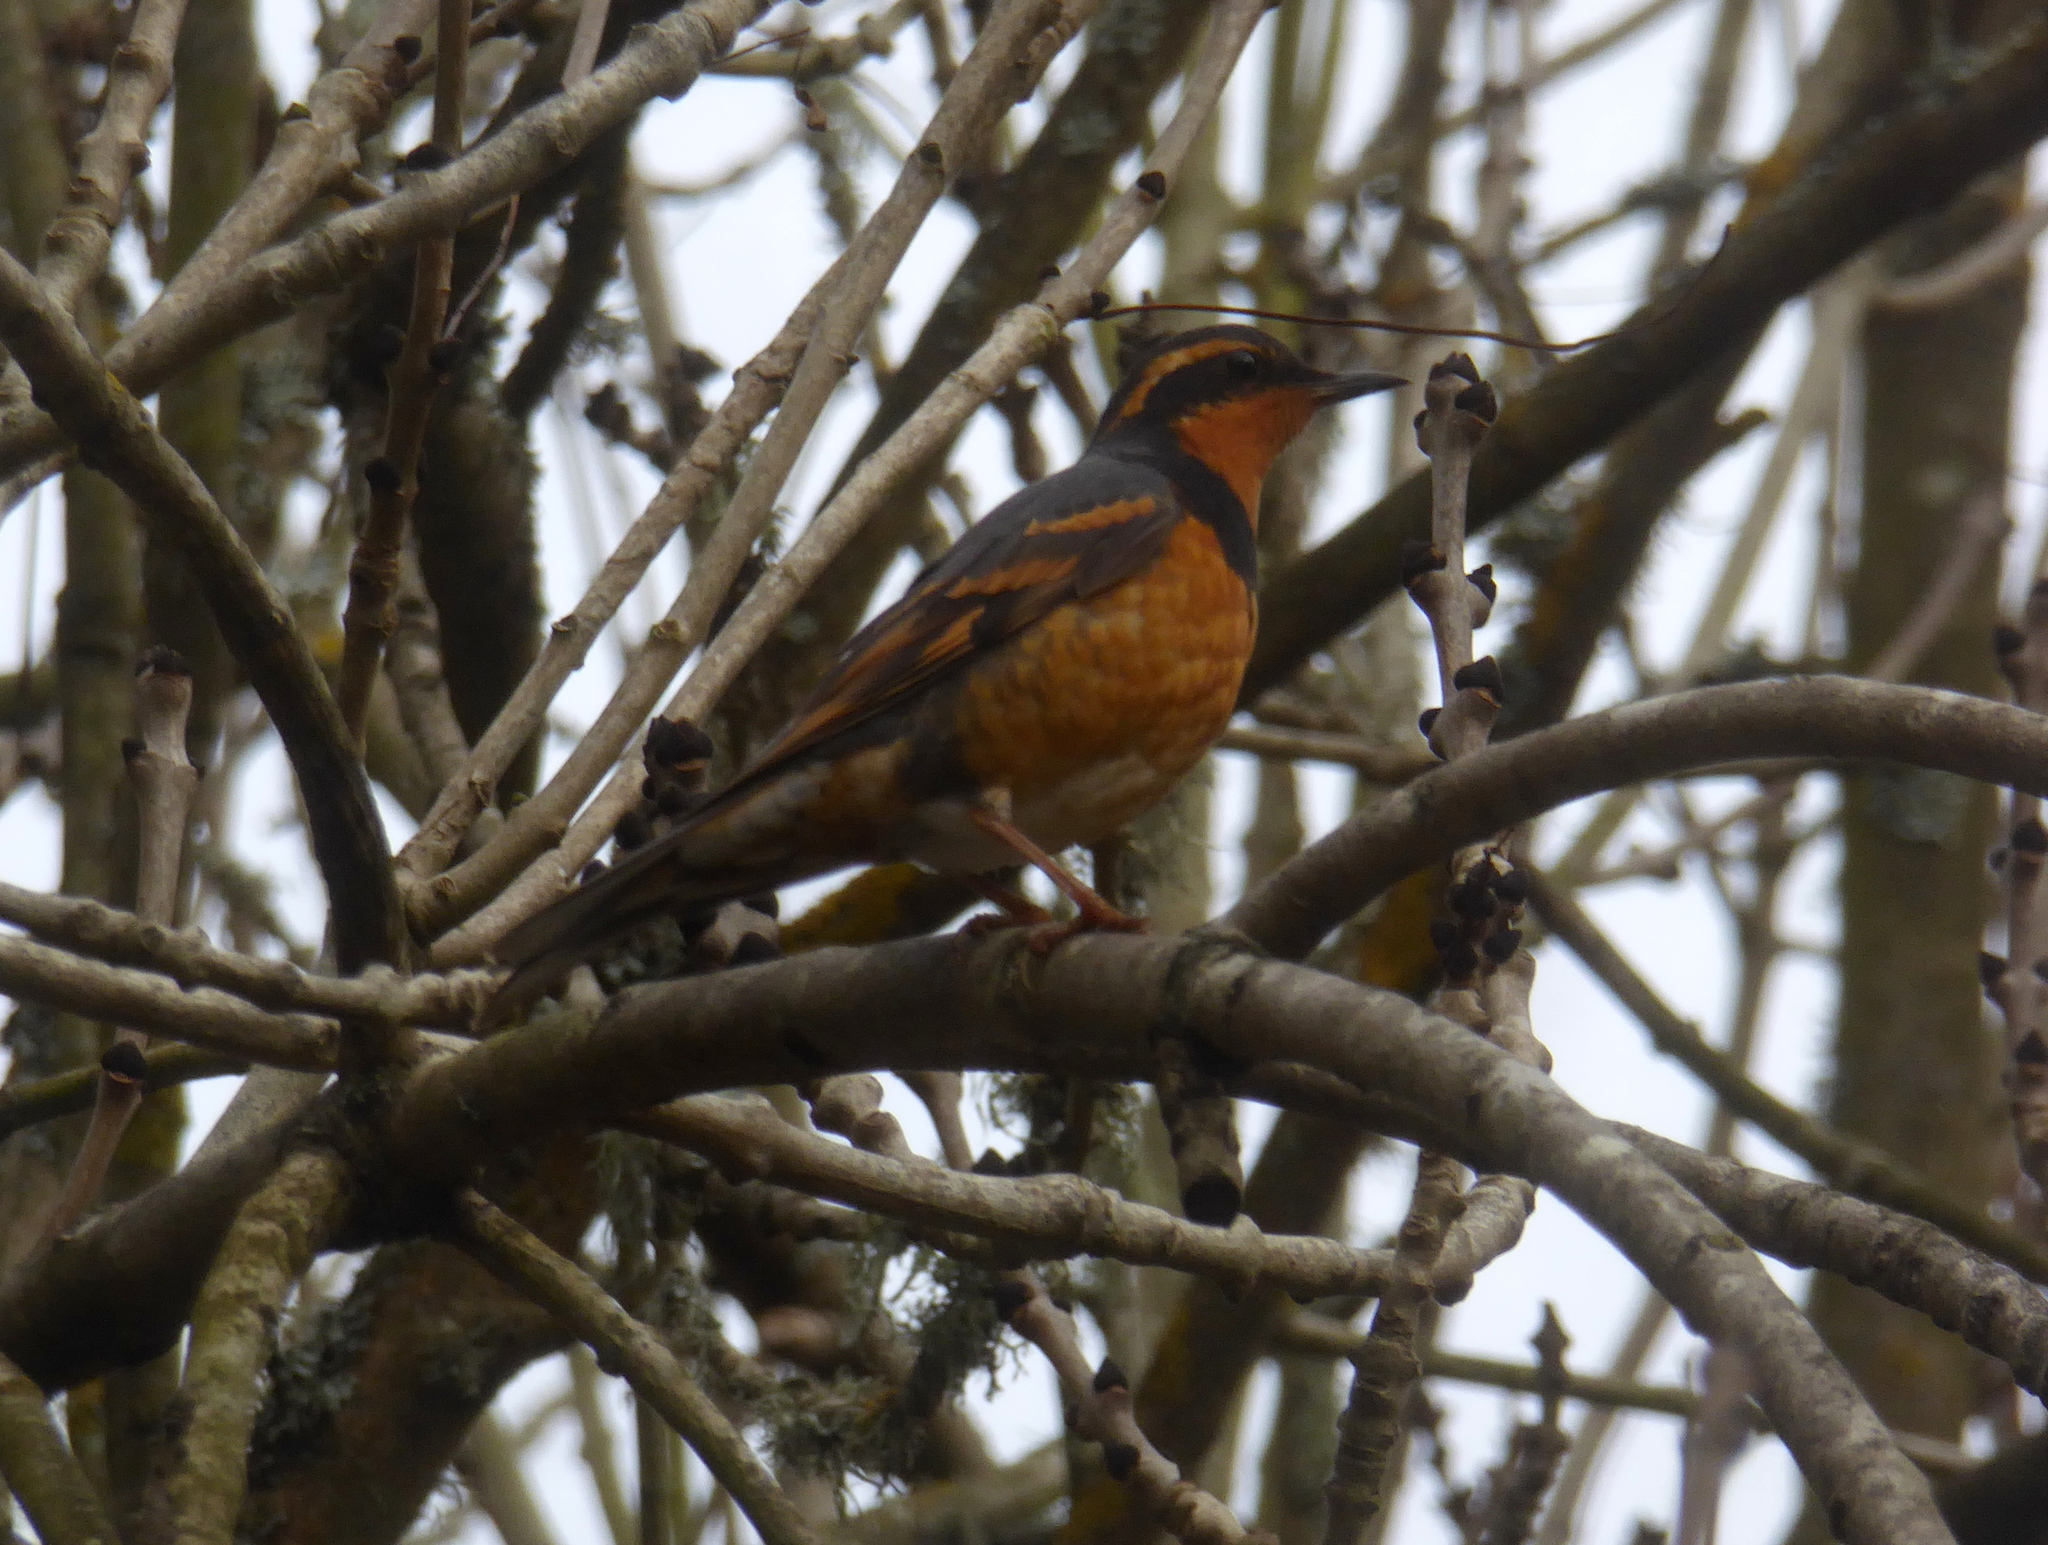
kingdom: Animalia
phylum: Chordata
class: Aves
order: Passeriformes
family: Turdidae
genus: Ixoreus
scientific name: Ixoreus naevius
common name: Varied thrush
